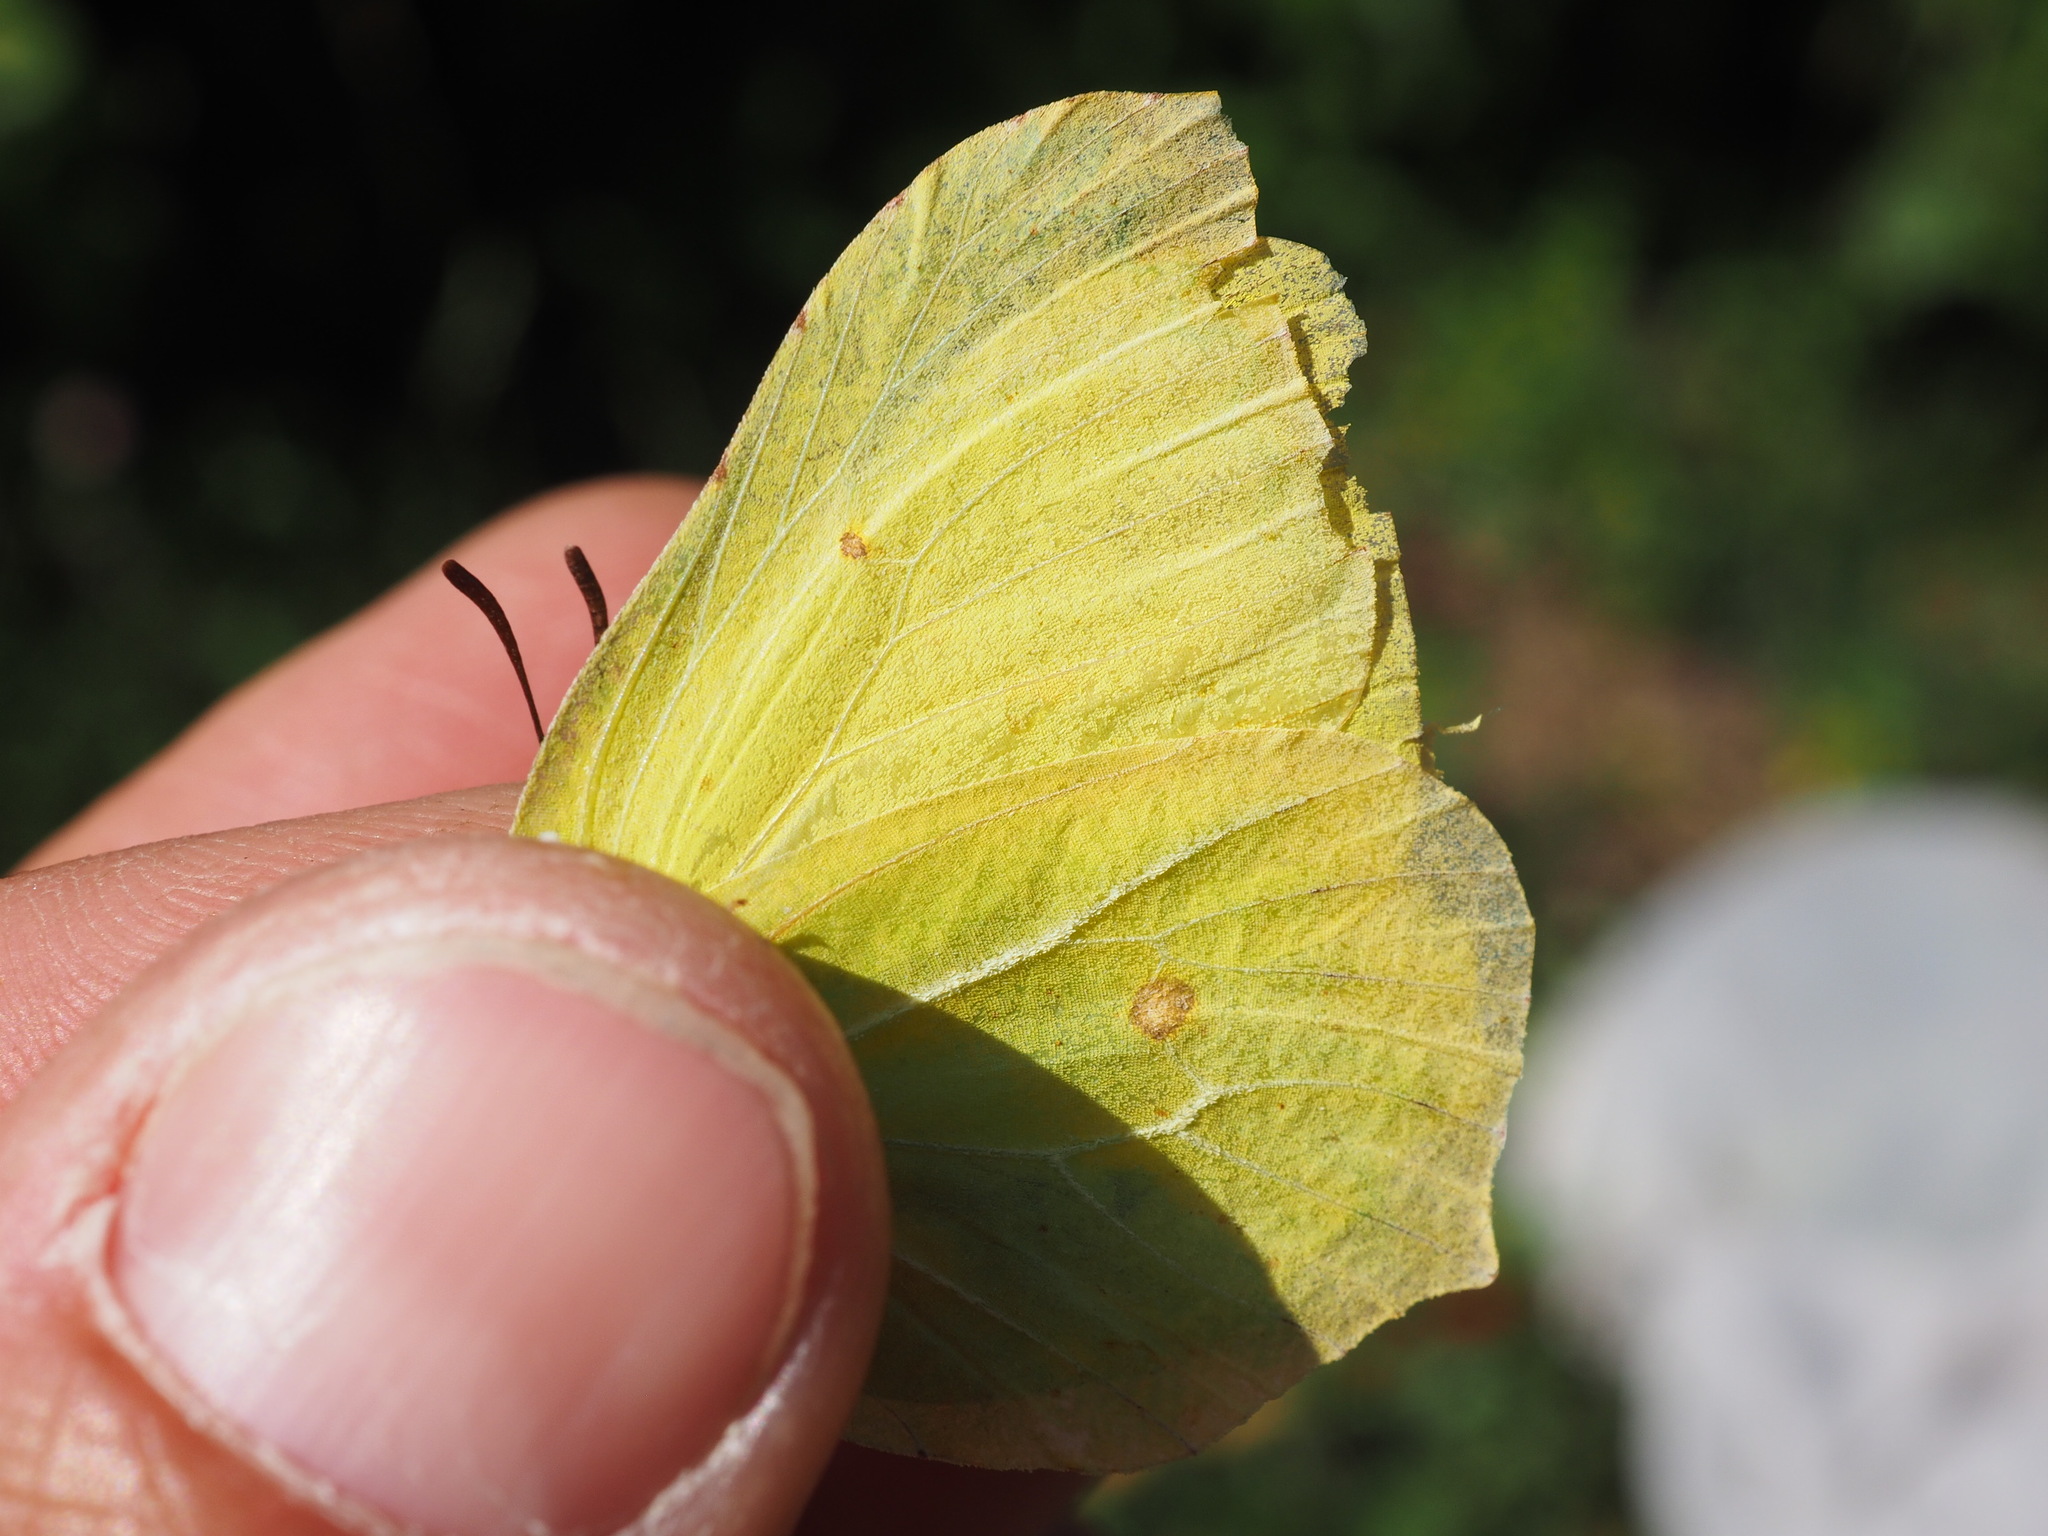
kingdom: Animalia
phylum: Arthropoda
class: Insecta
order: Lepidoptera
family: Pieridae
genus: Gonepteryx
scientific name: Gonepteryx rhamni
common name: Brimstone
